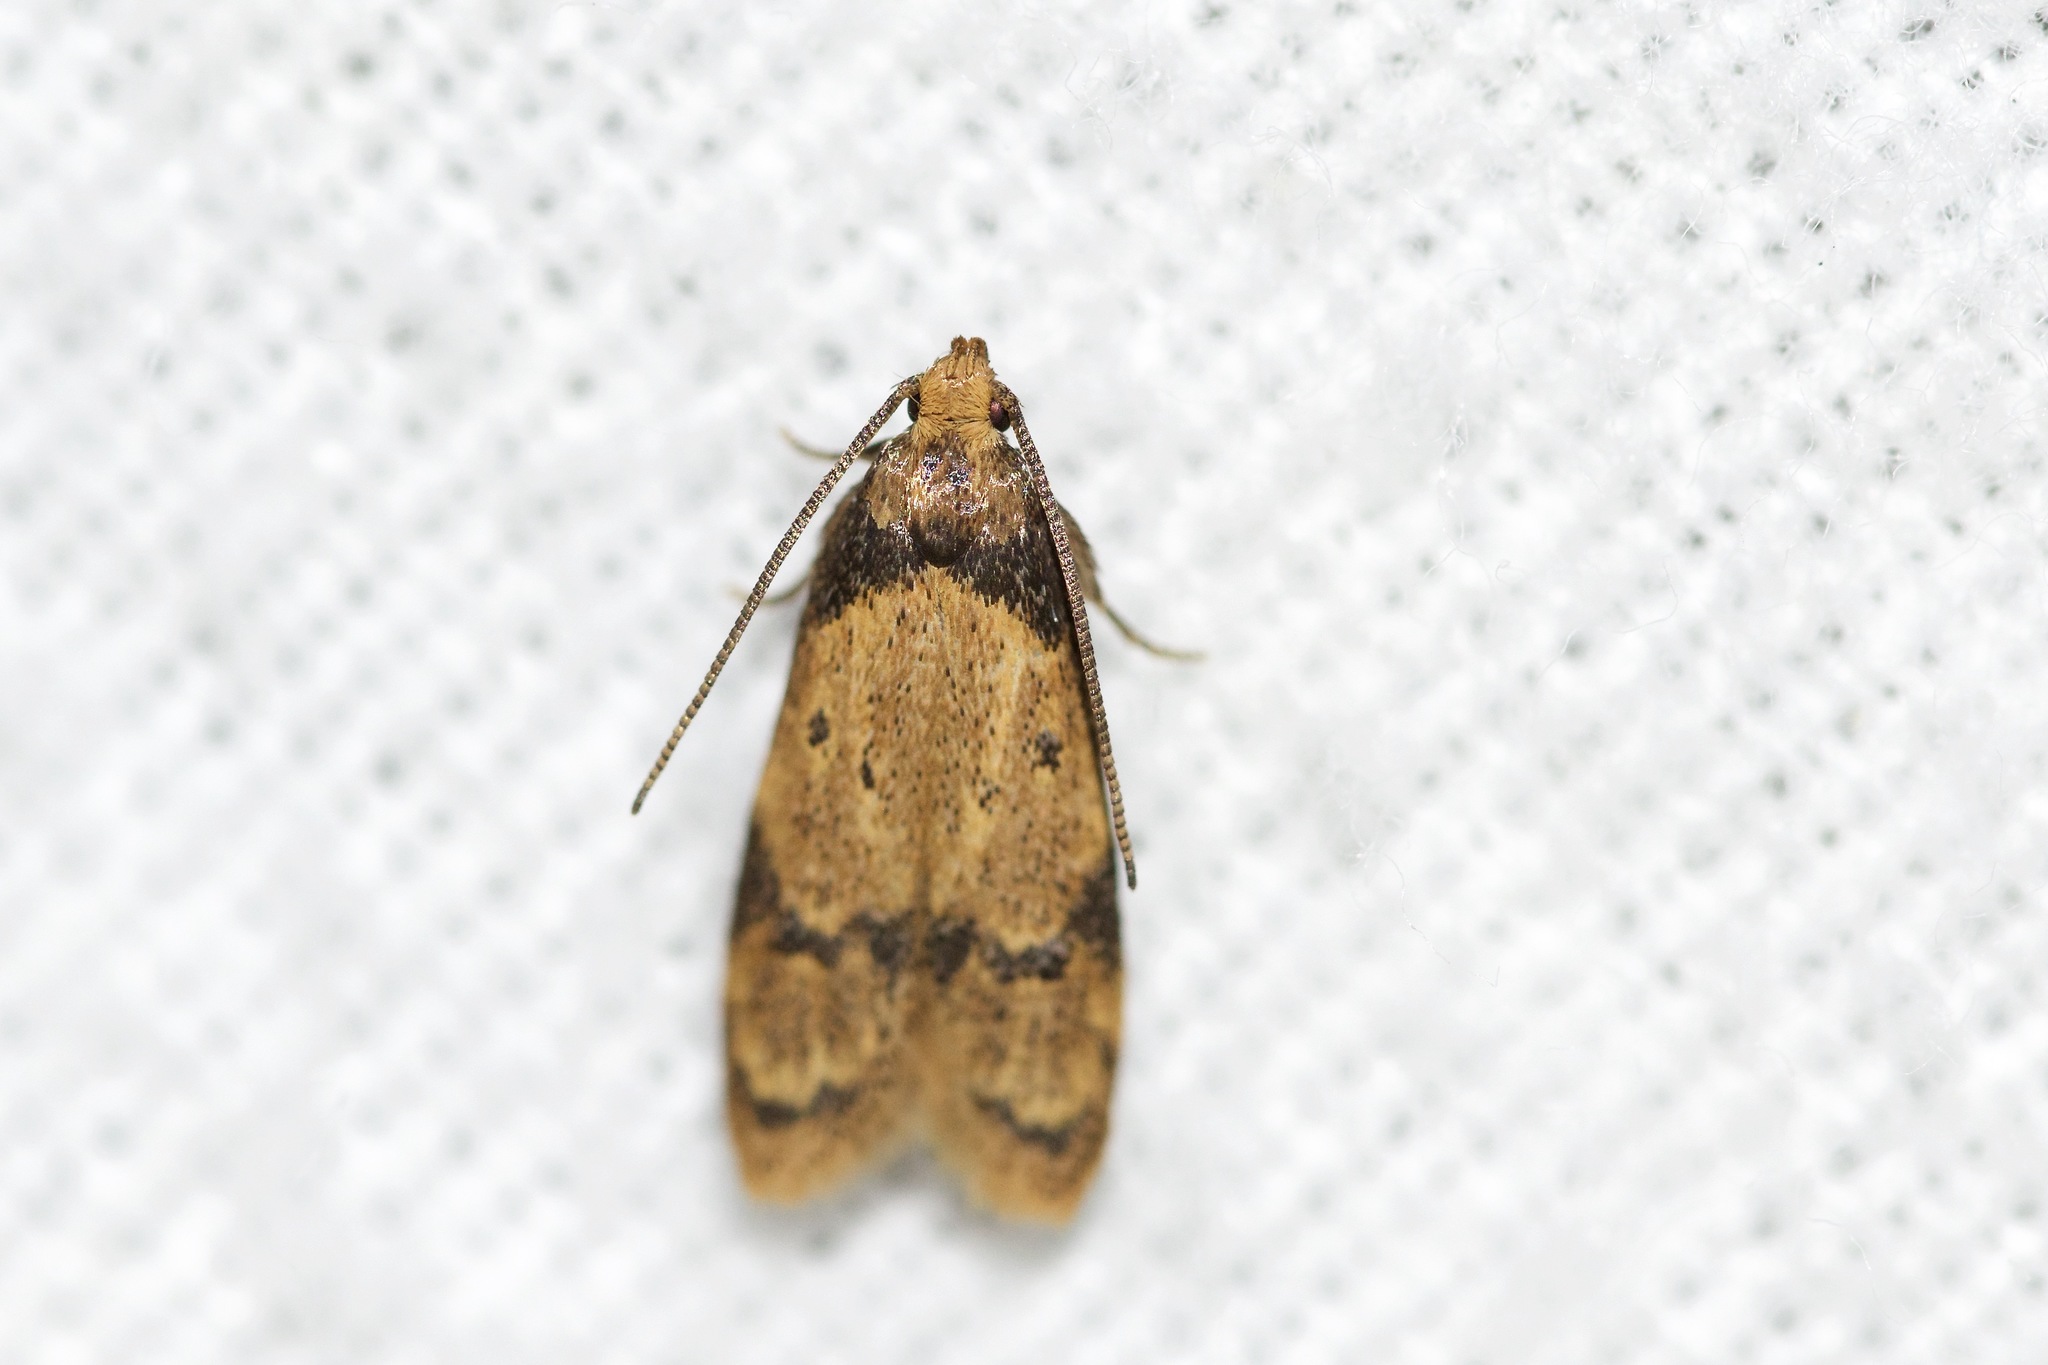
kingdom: Animalia
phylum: Arthropoda
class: Insecta
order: Lepidoptera
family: Autostichidae
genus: Gerdana
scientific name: Gerdana caritella
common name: Gerdana moth
